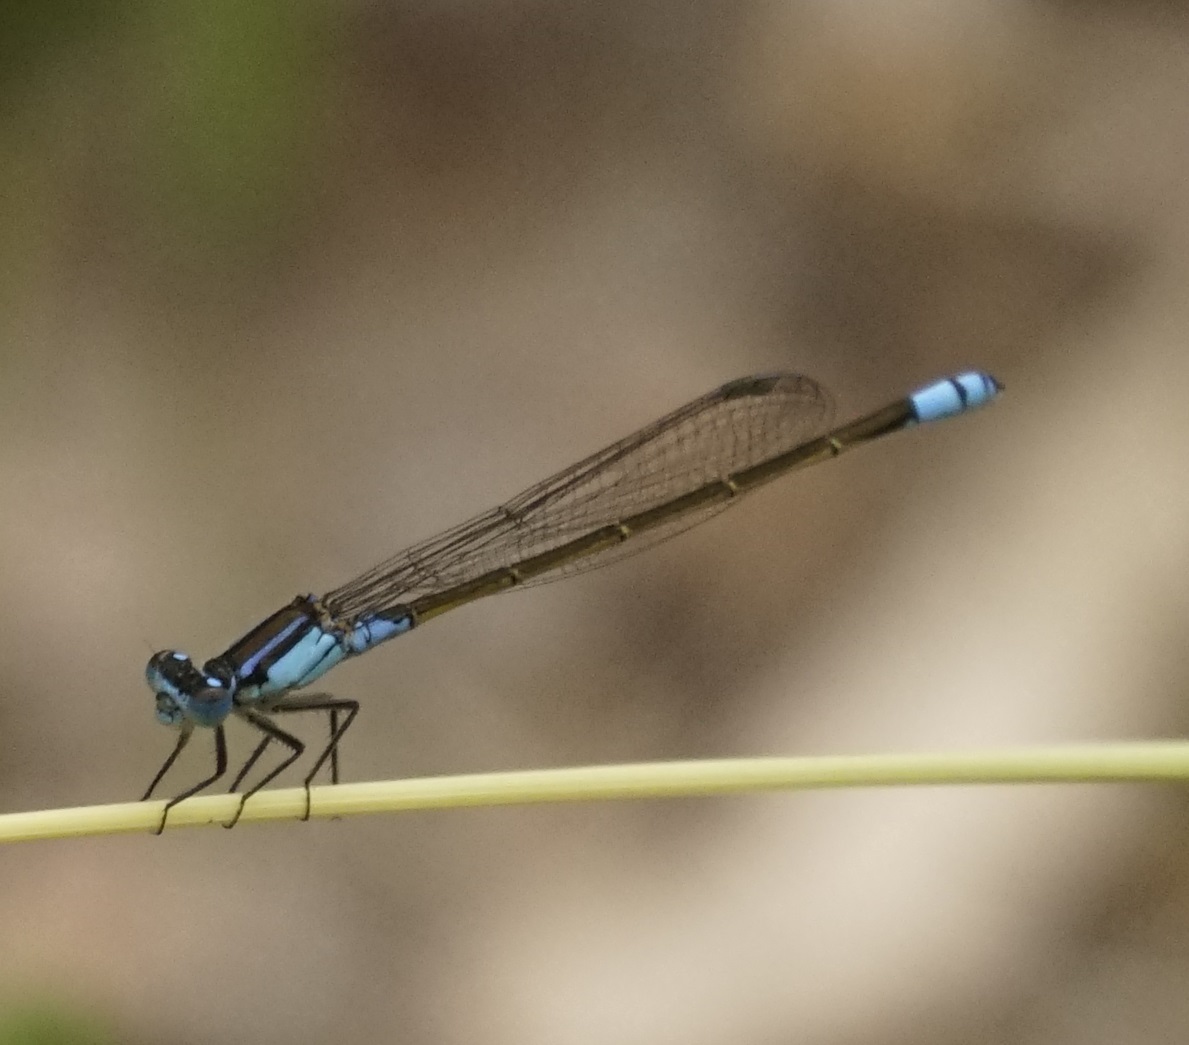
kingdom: Animalia
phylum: Arthropoda
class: Insecta
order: Odonata
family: Coenagrionidae
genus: Ischnura
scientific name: Ischnura heterosticta
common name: Common bluetail
